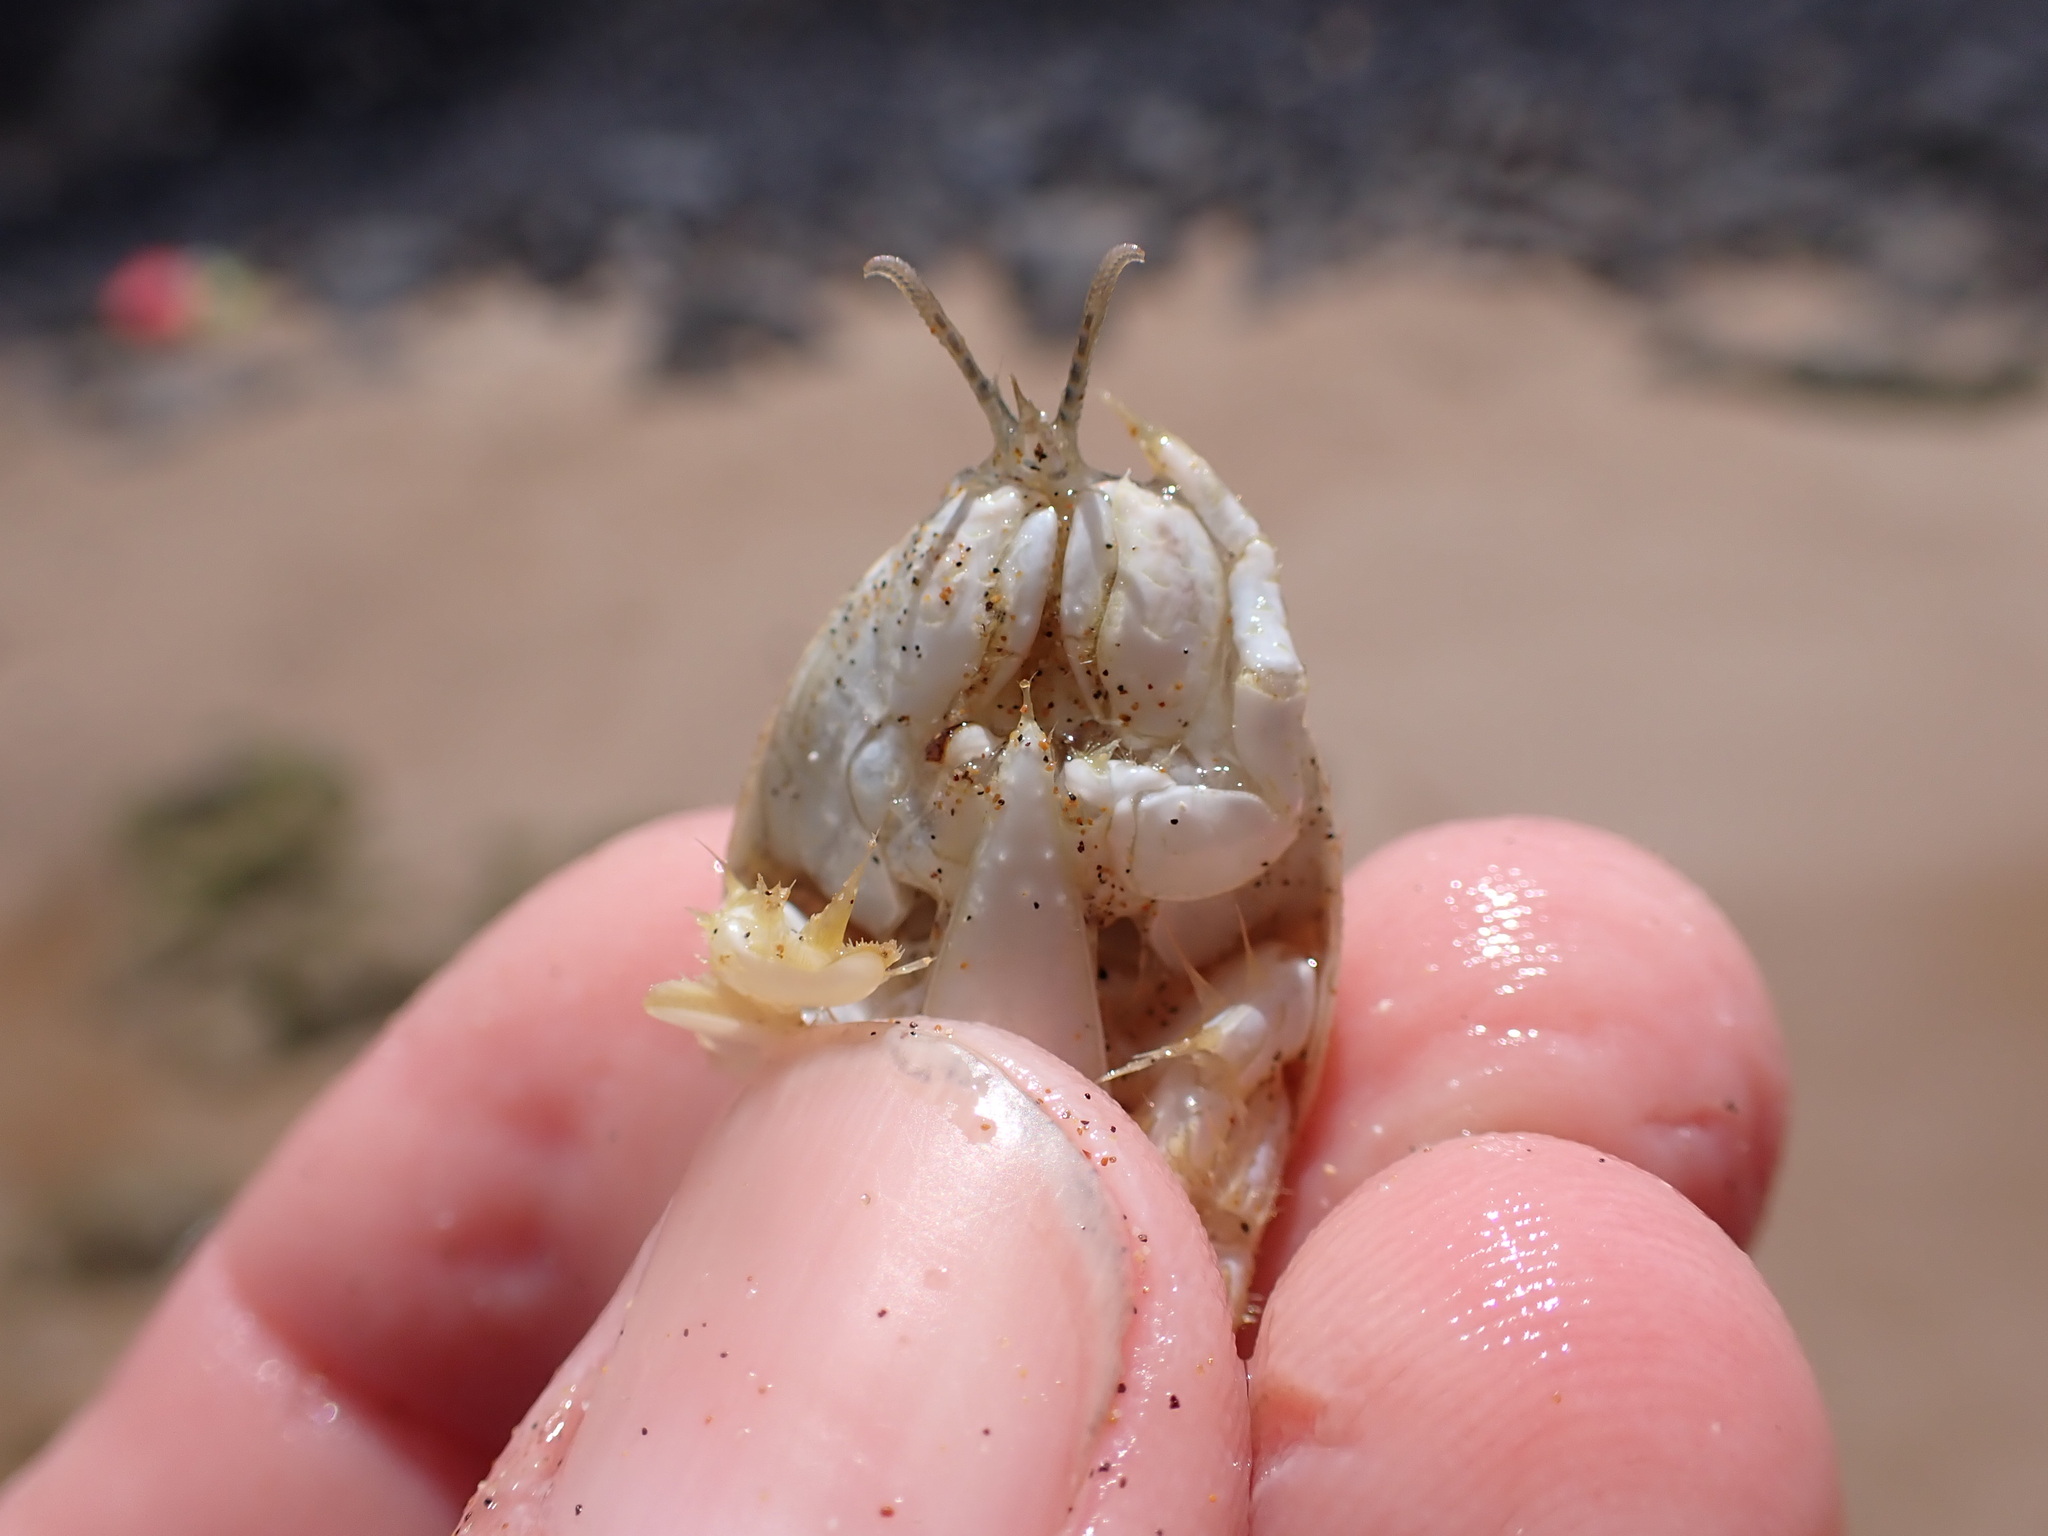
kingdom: Animalia
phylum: Arthropoda
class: Malacostraca
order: Decapoda
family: Hippidae
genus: Hippa
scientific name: Hippa marmorata
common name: Pacific mole crab
